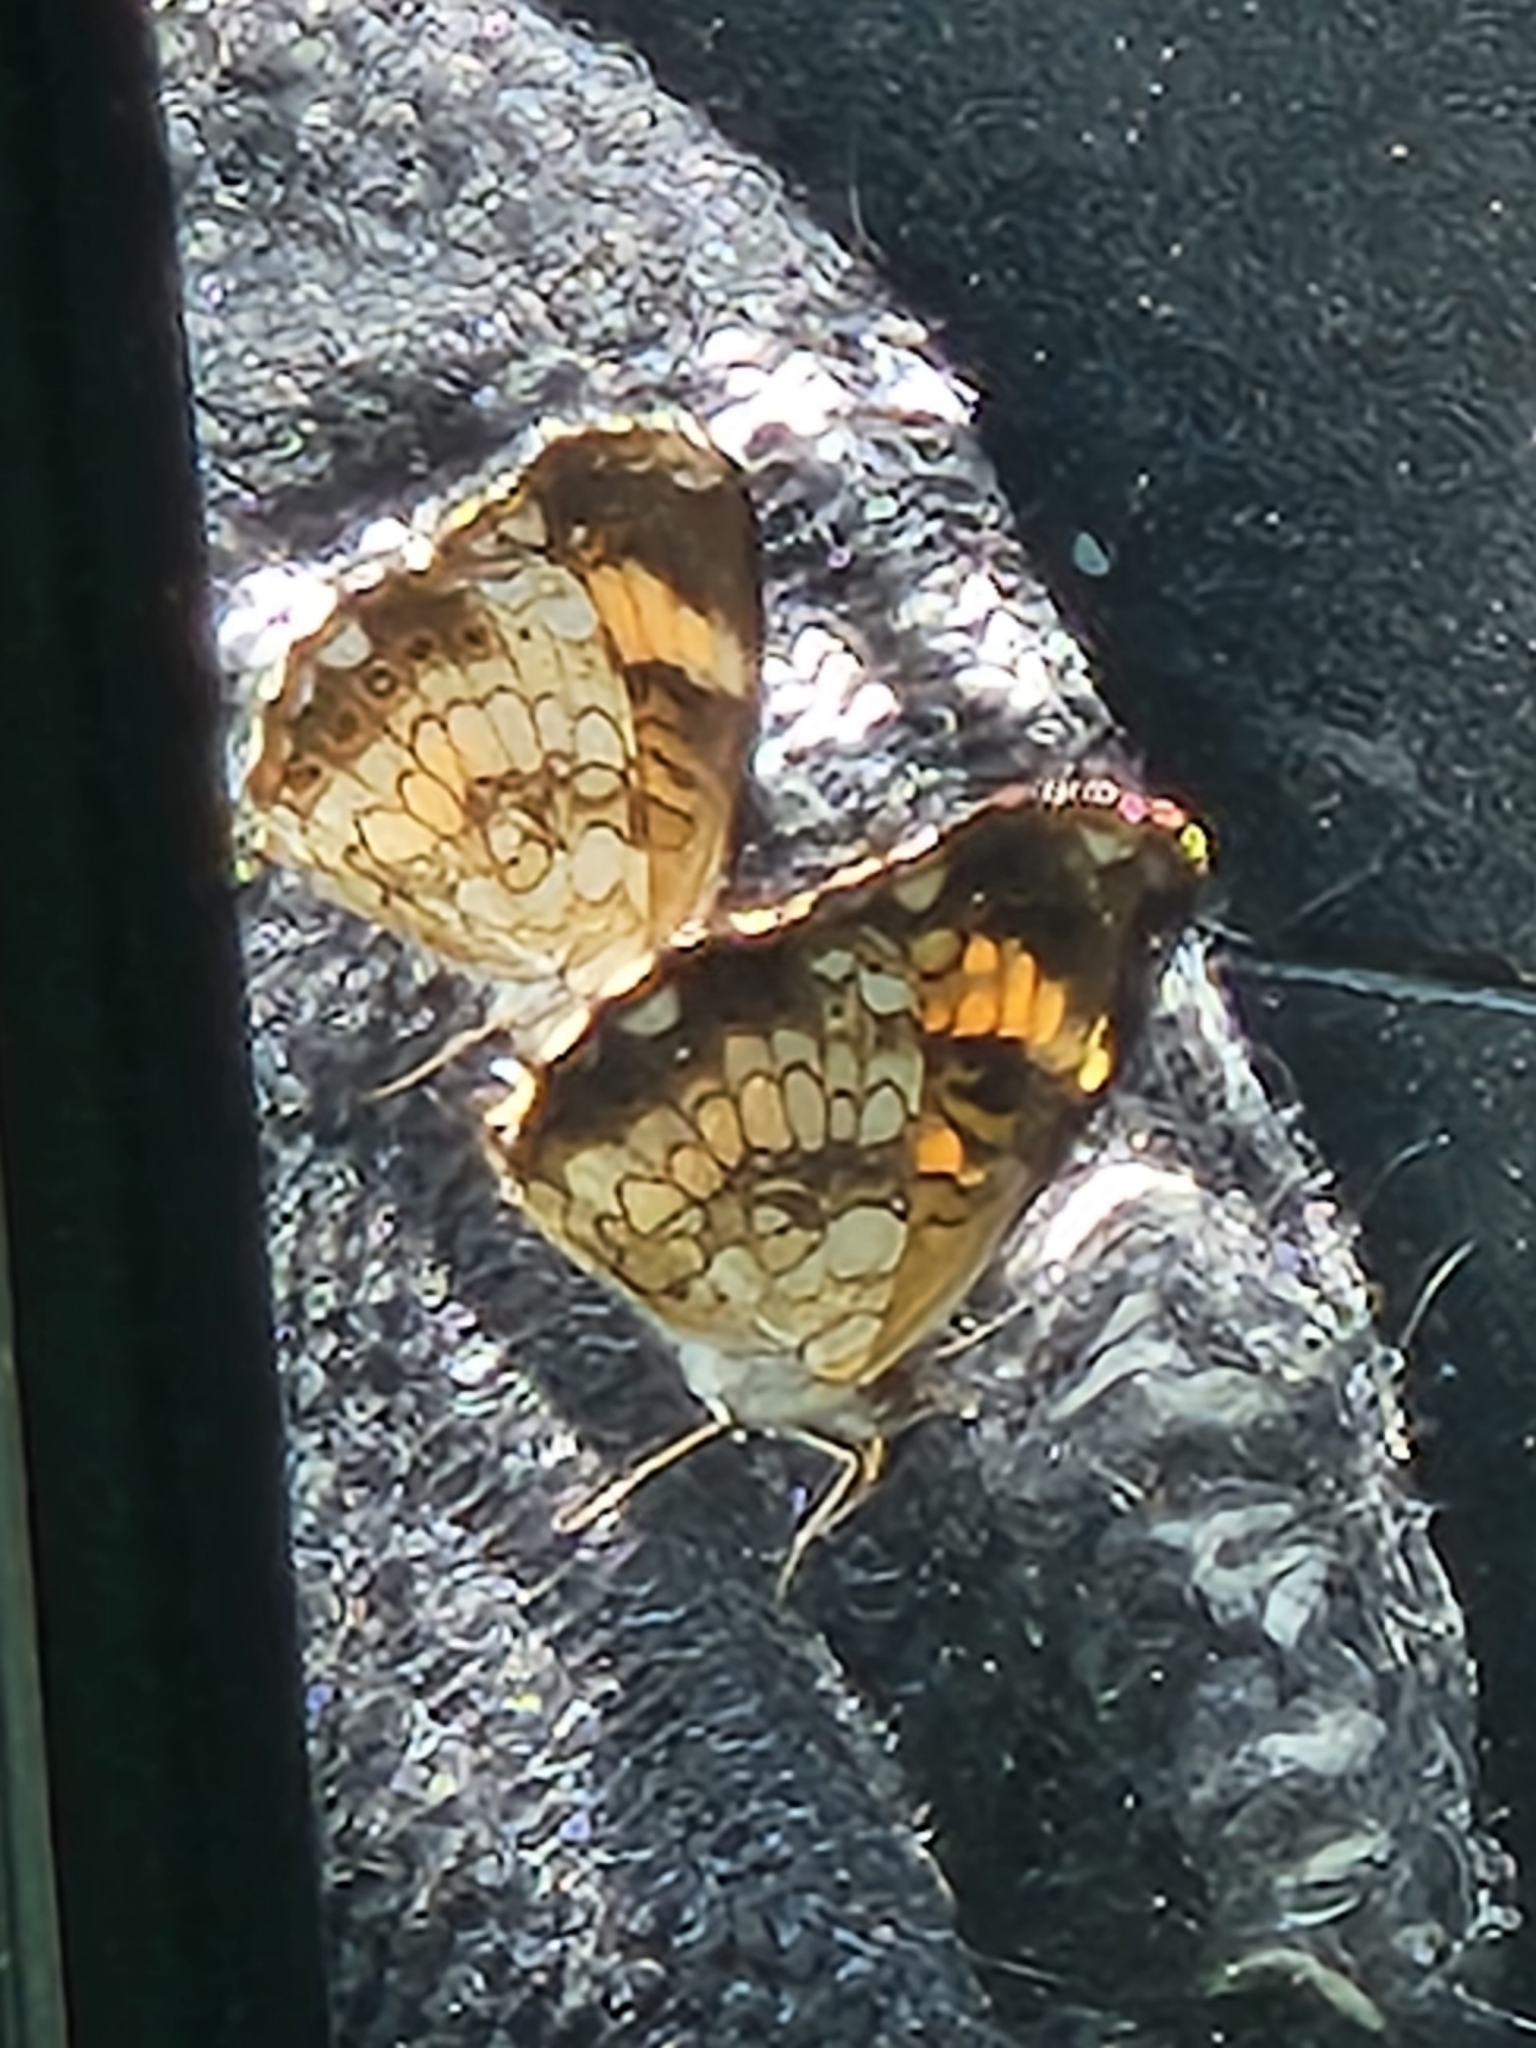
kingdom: Animalia
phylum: Arthropoda
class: Insecta
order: Lepidoptera
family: Nymphalidae
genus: Chlosyne
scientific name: Chlosyne nycteis
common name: Silvery checkerspot
